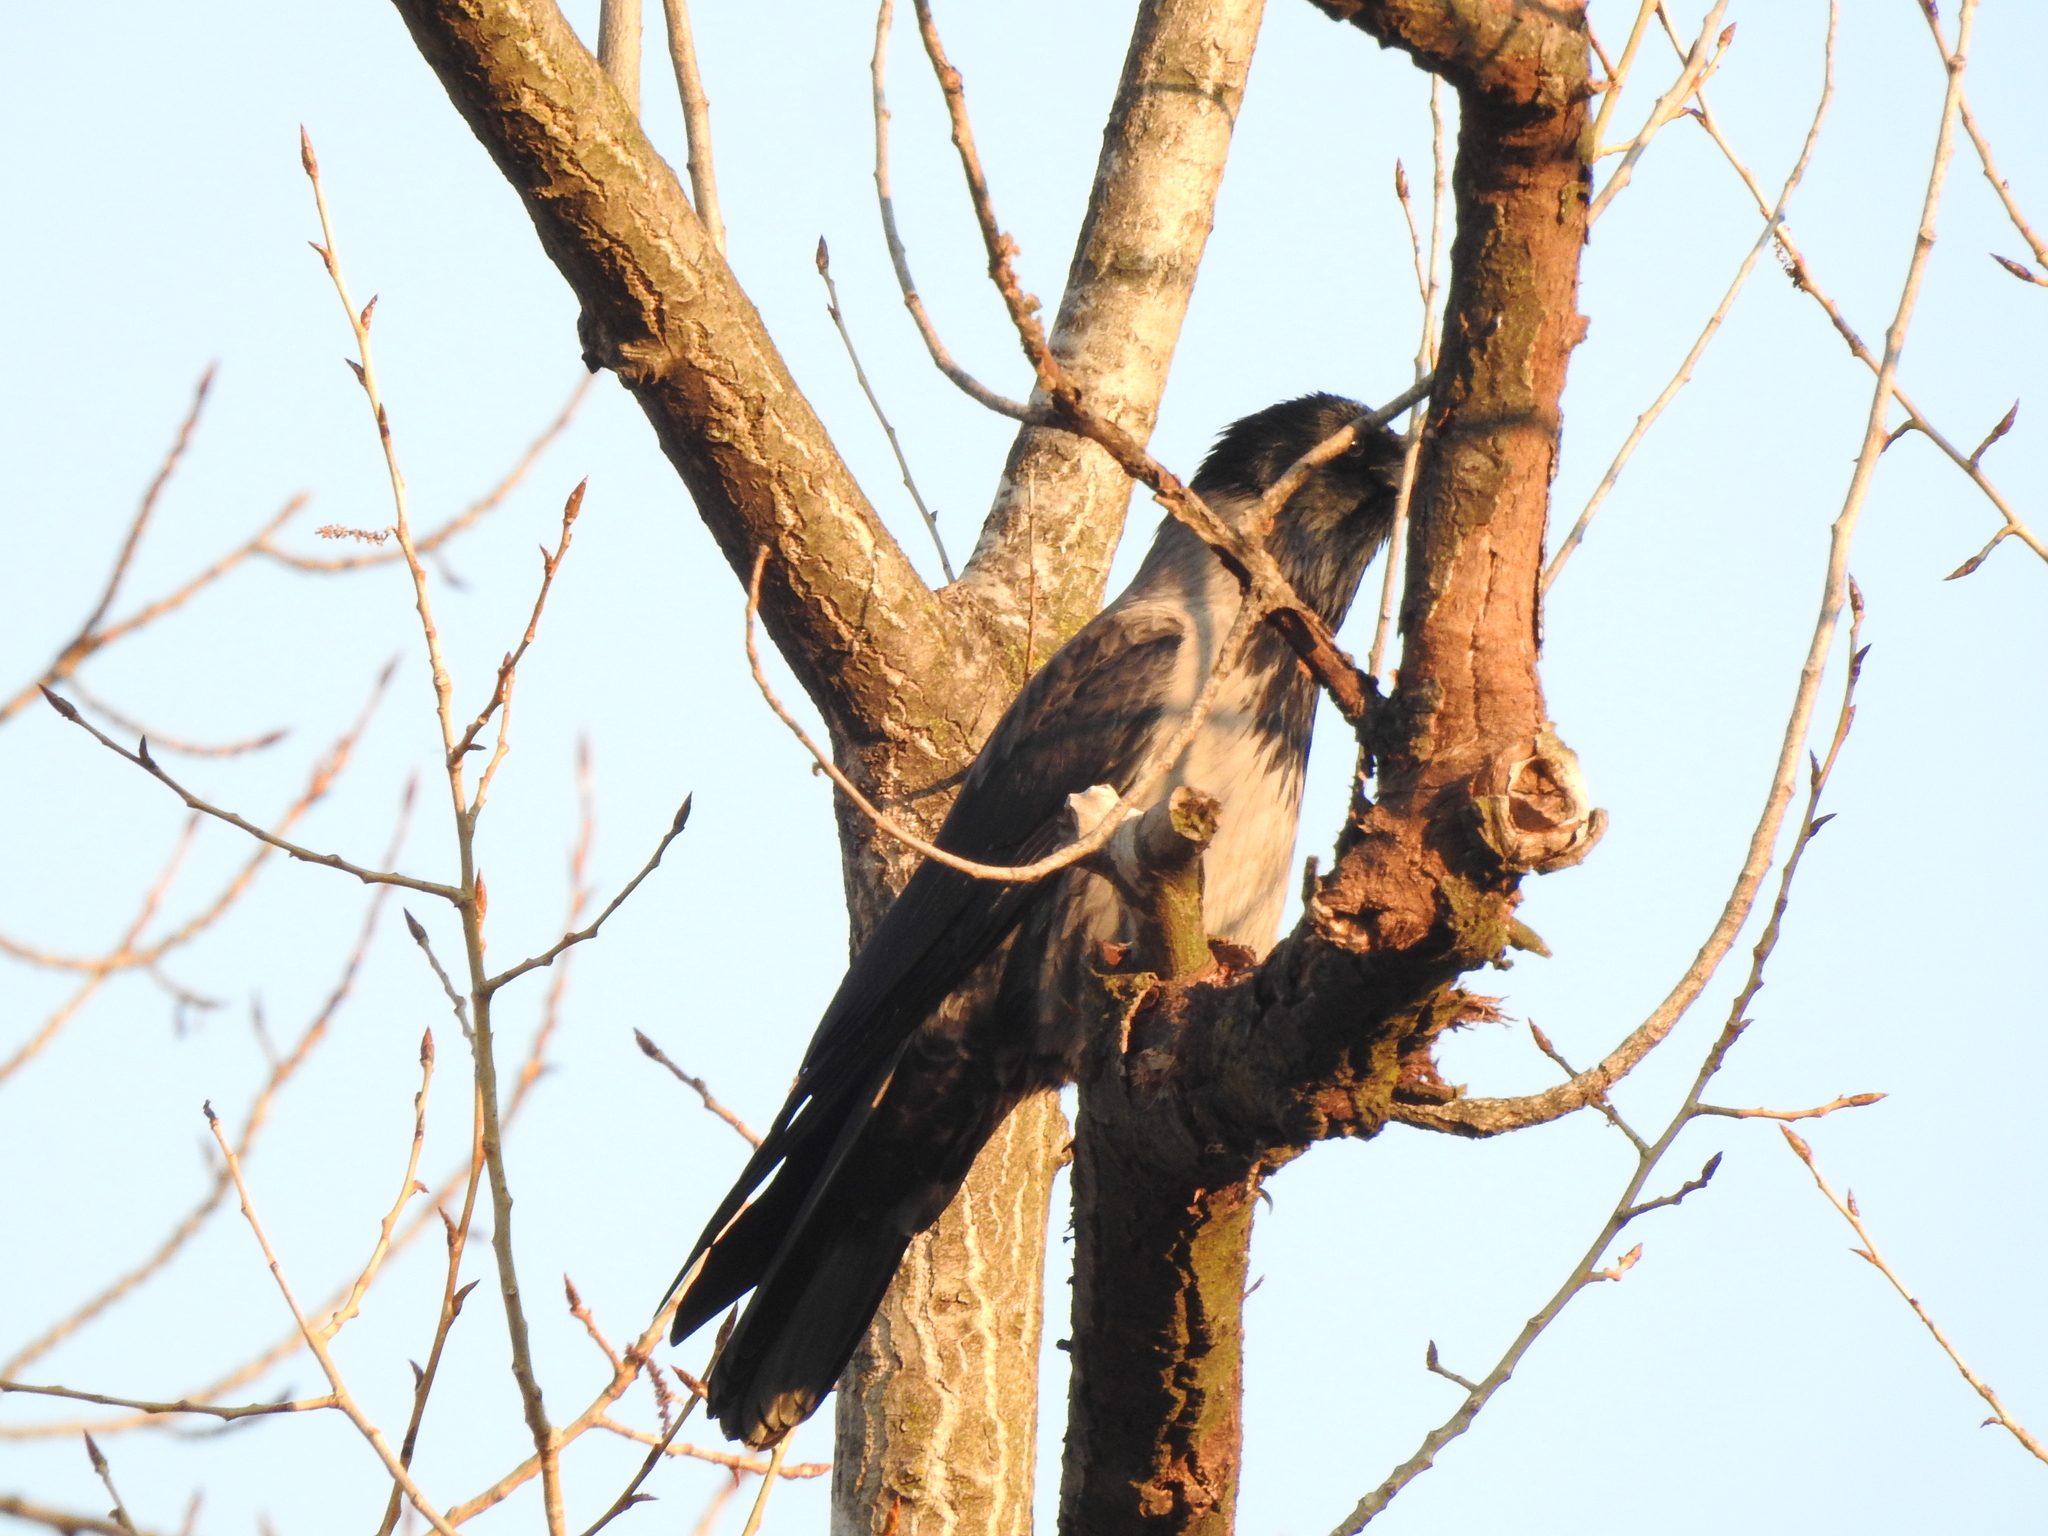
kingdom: Animalia
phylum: Chordata
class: Aves
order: Passeriformes
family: Corvidae
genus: Corvus
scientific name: Corvus
